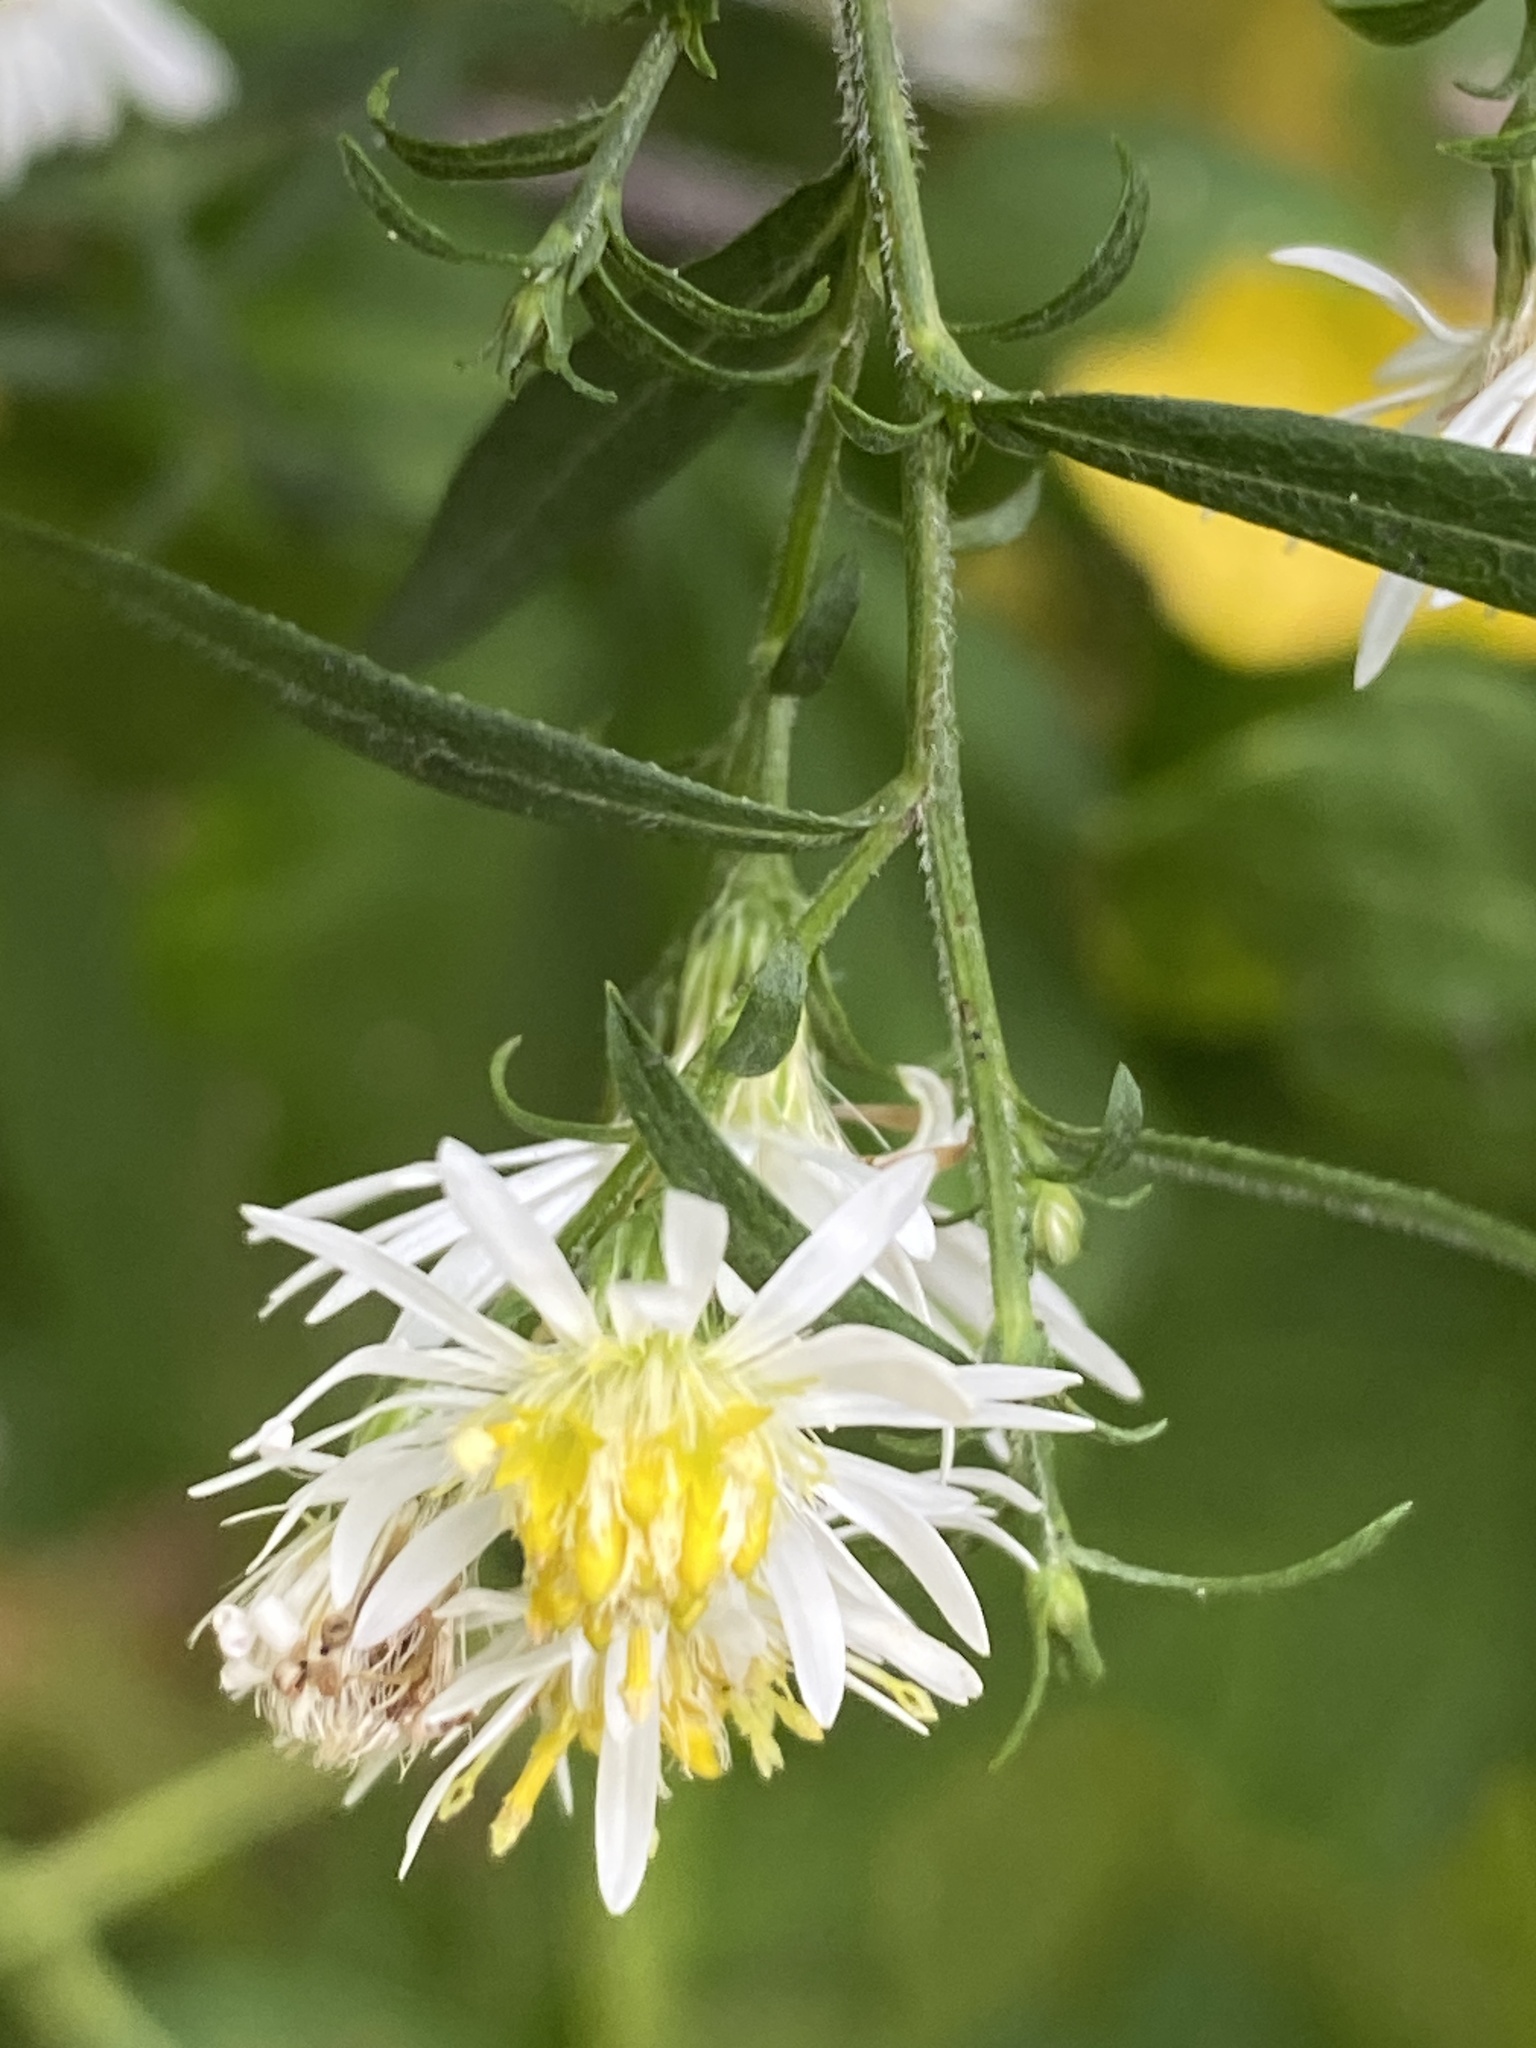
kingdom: Plantae
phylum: Tracheophyta
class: Magnoliopsida
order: Asterales
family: Asteraceae
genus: Symphyotrichum
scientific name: Symphyotrichum lanceolatum
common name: Panicled aster
